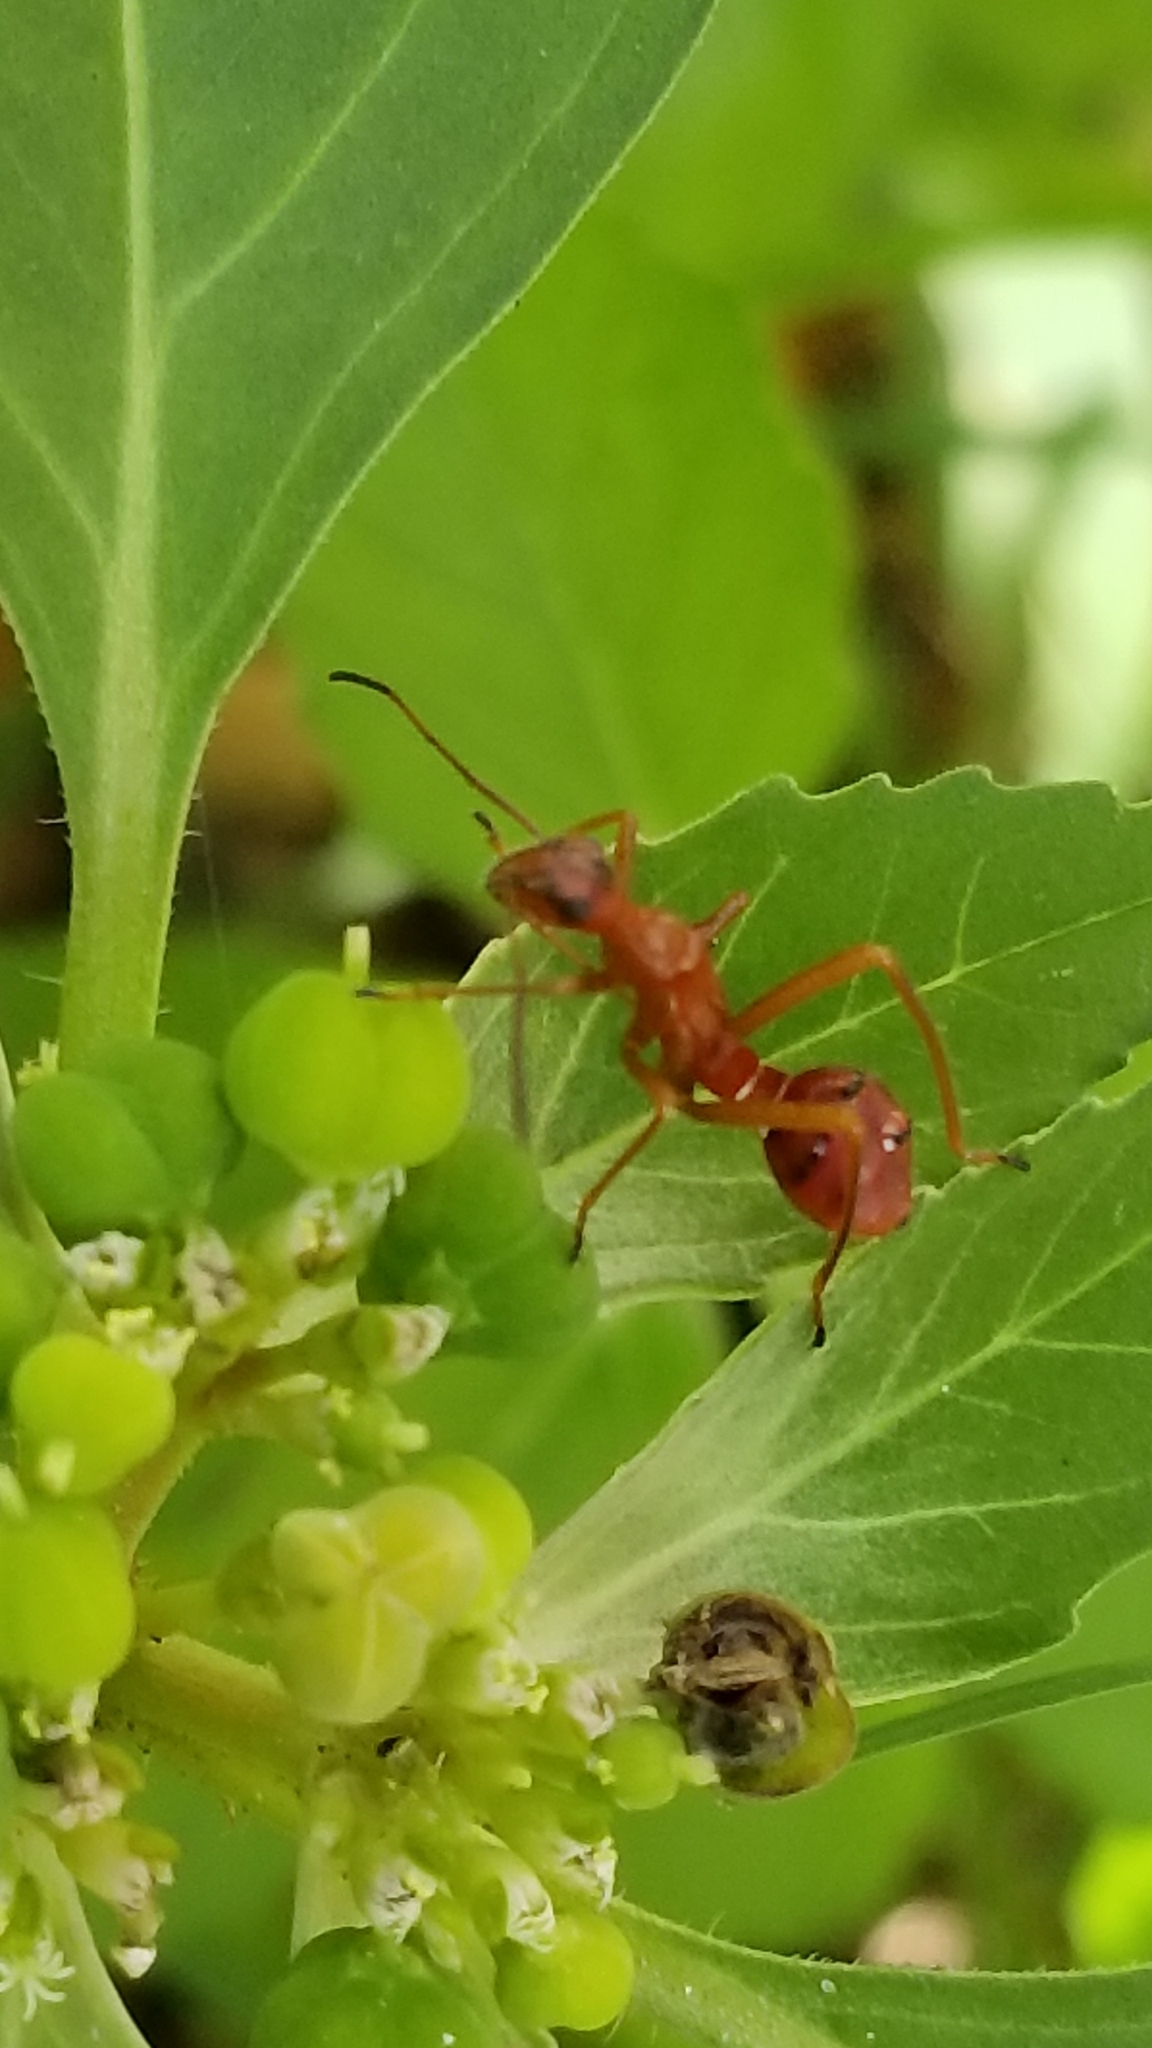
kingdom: Animalia
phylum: Arthropoda
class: Insecta
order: Hemiptera
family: Alydidae
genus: Hyalymenus
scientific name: Hyalymenus tarsatus
